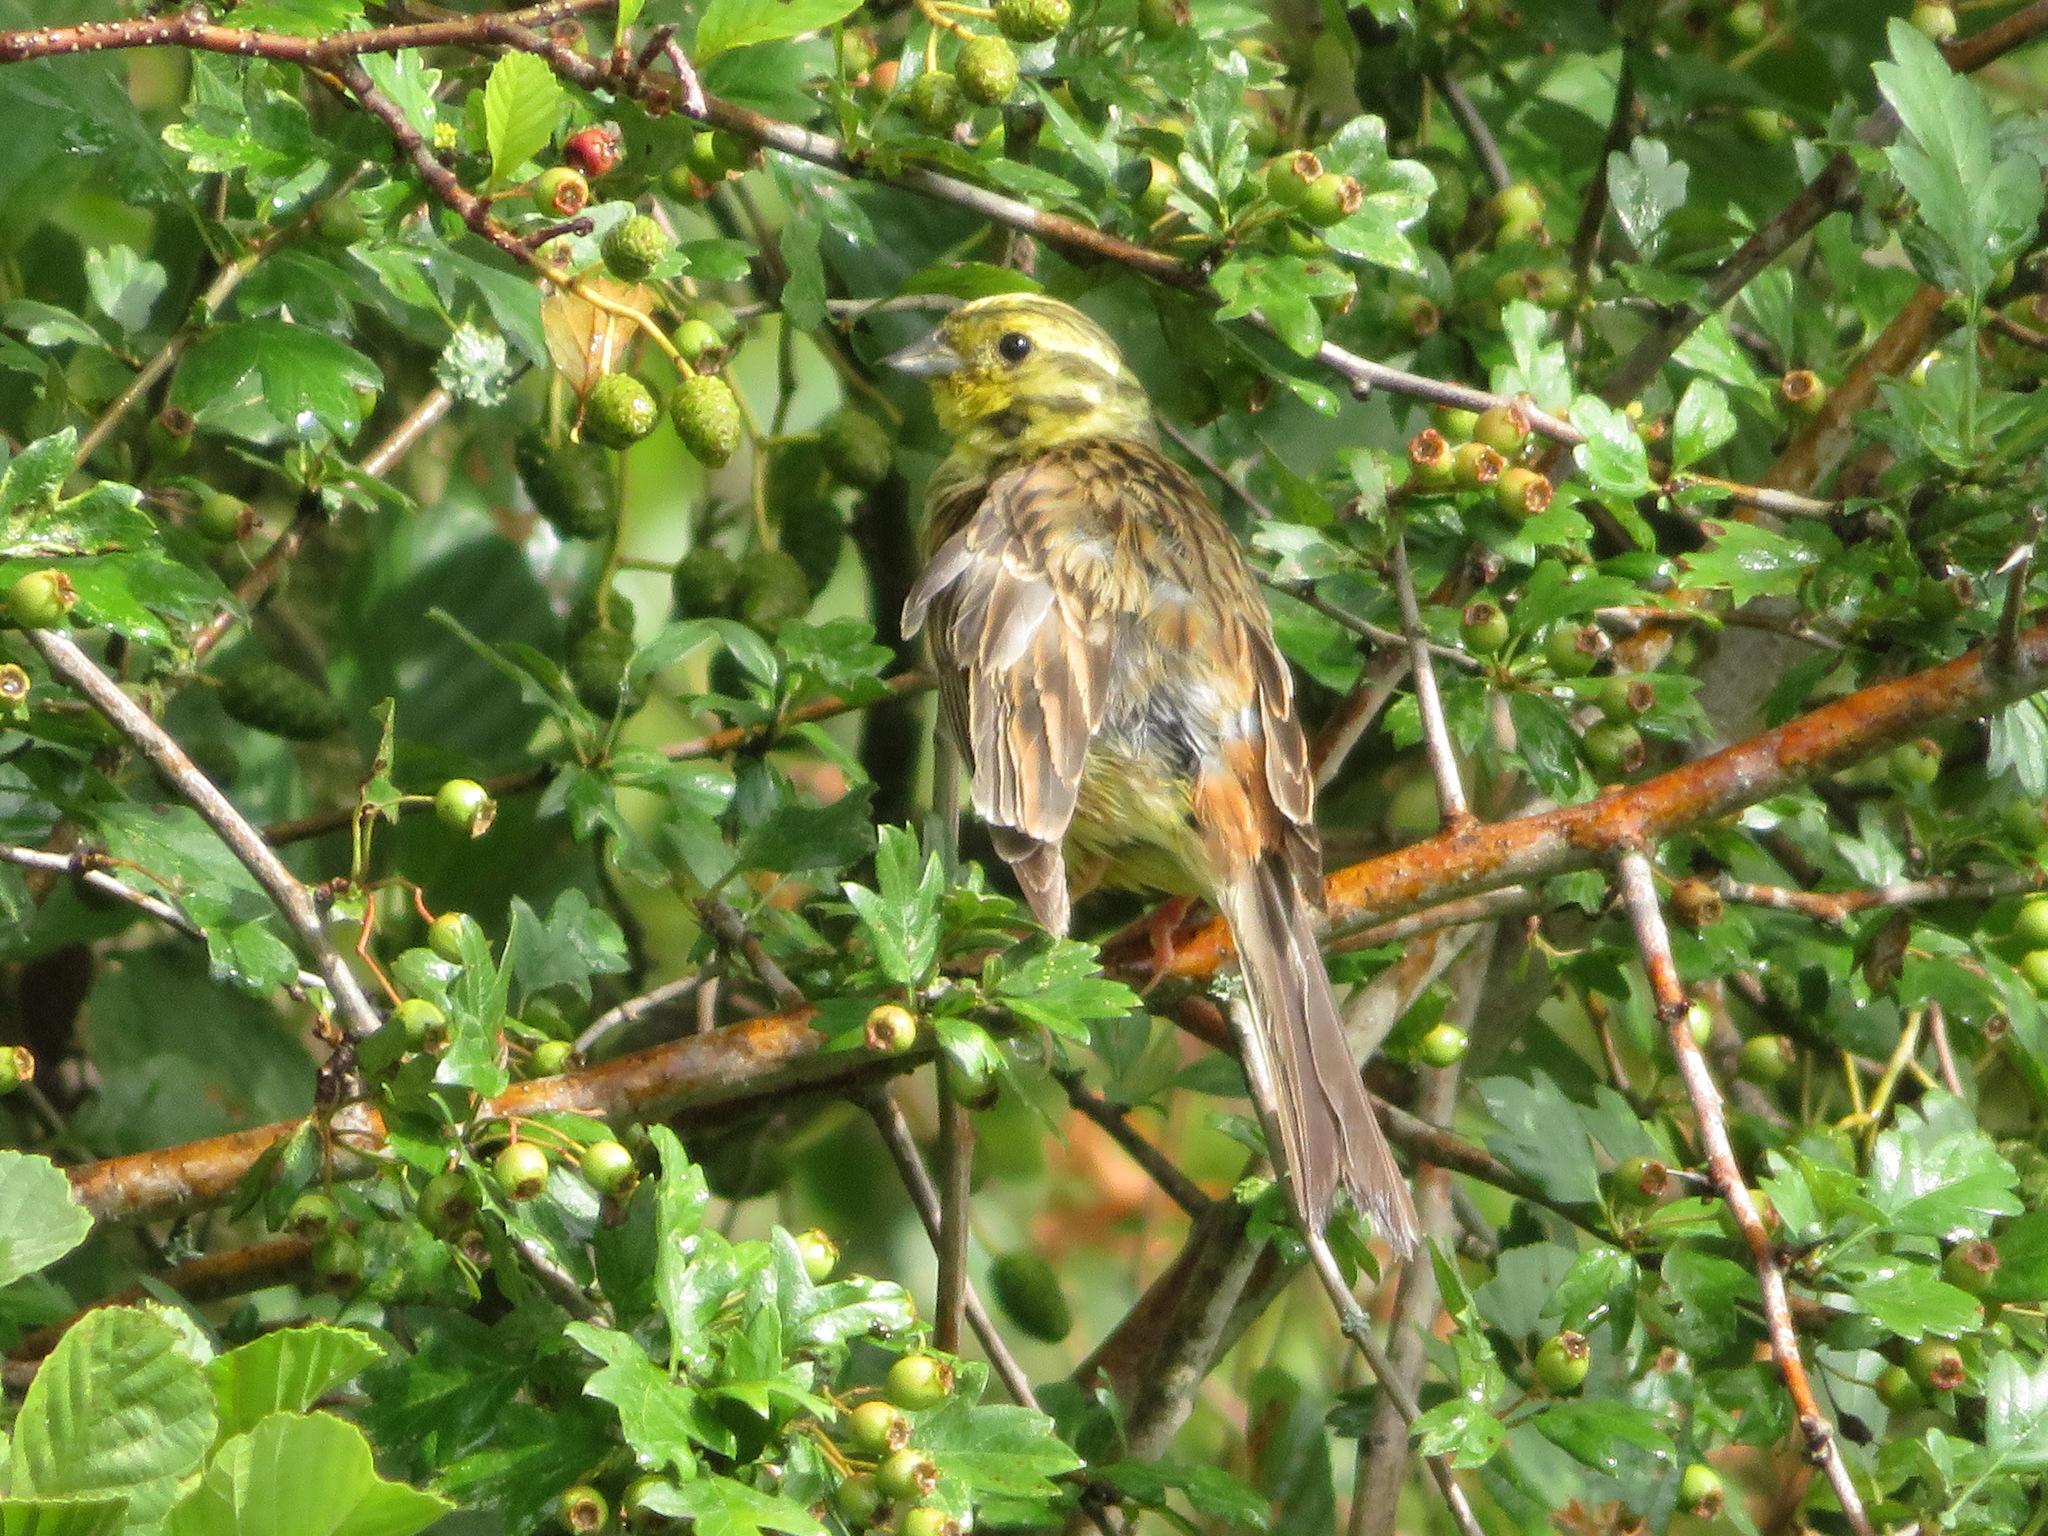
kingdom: Animalia
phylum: Chordata
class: Aves
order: Passeriformes
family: Emberizidae
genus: Emberiza
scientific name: Emberiza citrinella
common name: Yellowhammer
